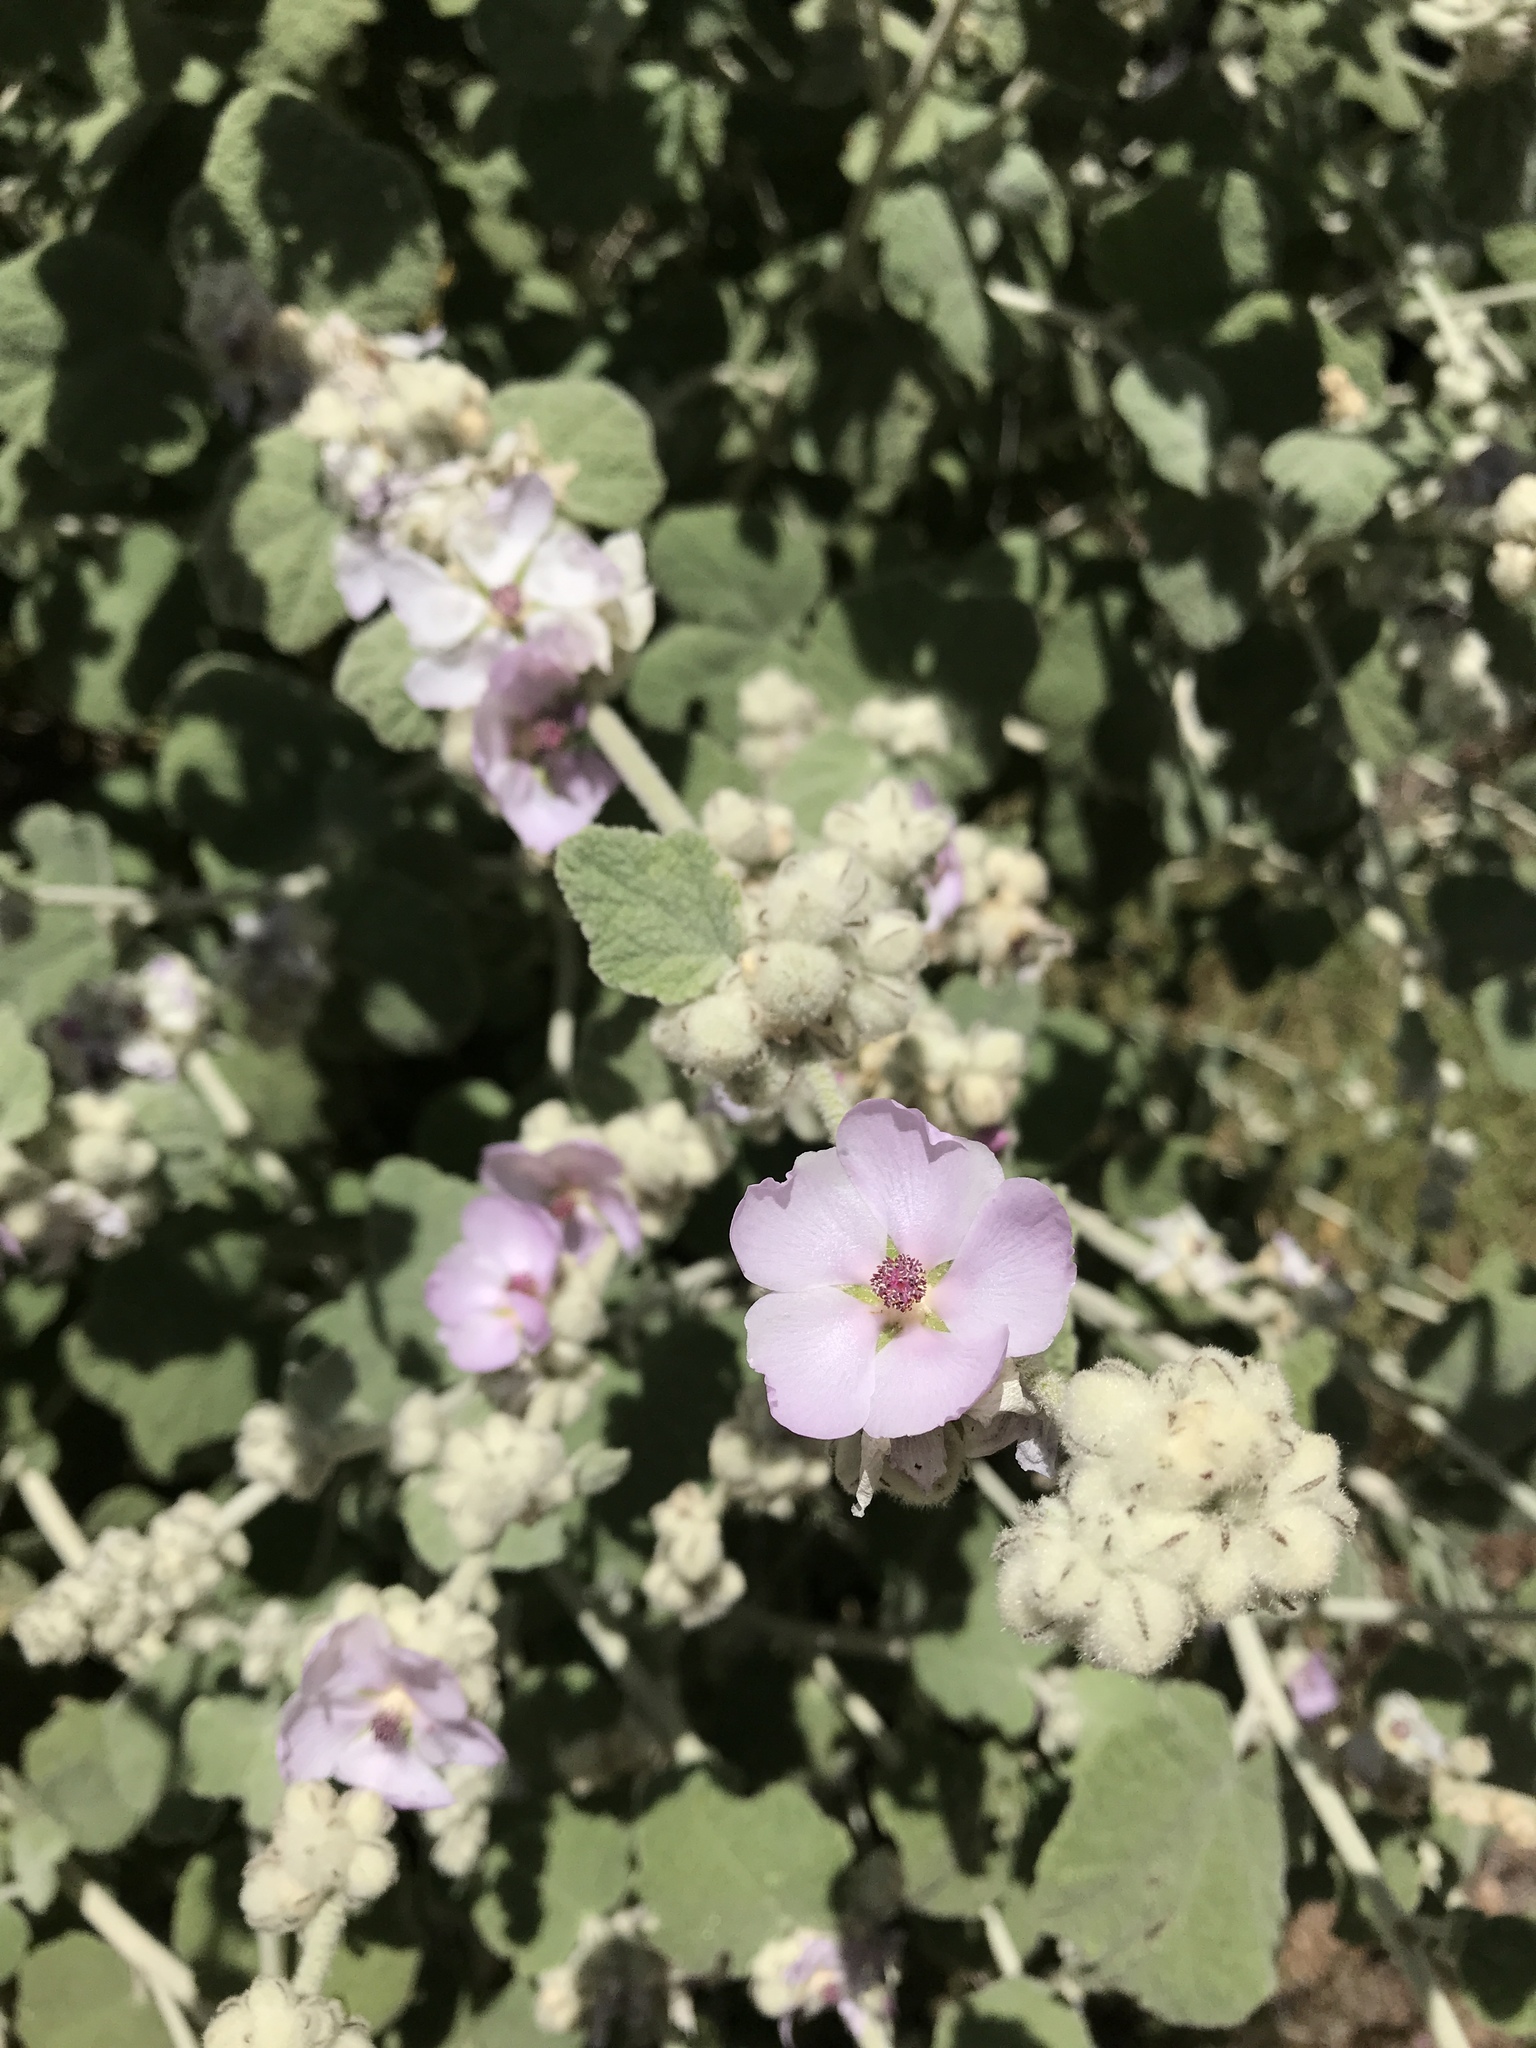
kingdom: Plantae
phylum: Tracheophyta
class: Magnoliopsida
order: Malvales
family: Malvaceae
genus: Malacothamnus
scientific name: Malacothamnus fremontii
